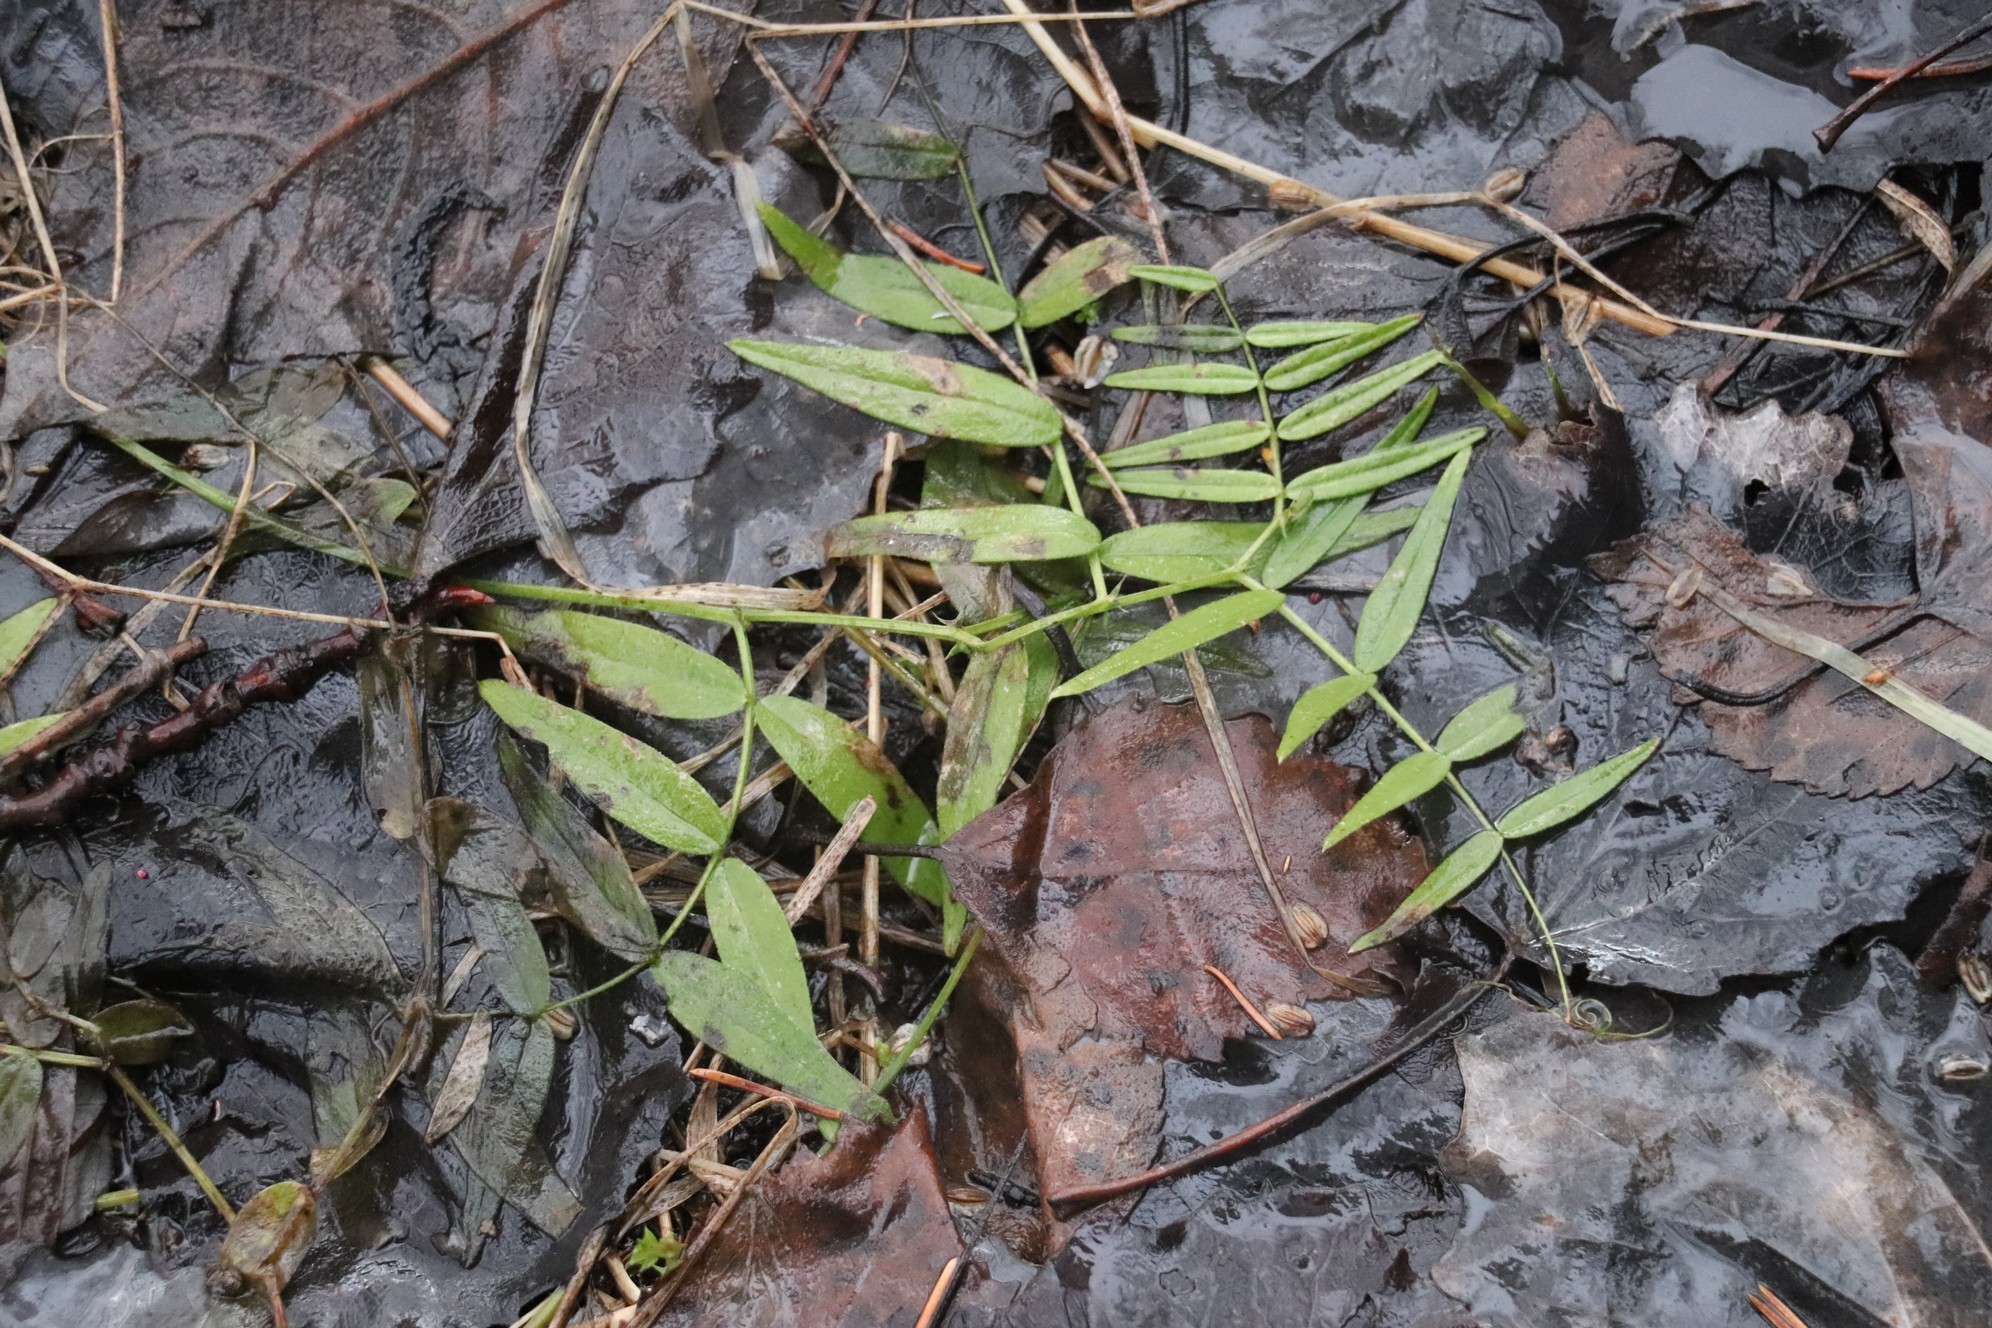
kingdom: Plantae
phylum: Tracheophyta
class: Magnoliopsida
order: Fabales
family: Fabaceae
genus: Vicia
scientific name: Vicia sepium
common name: Bush vetch
